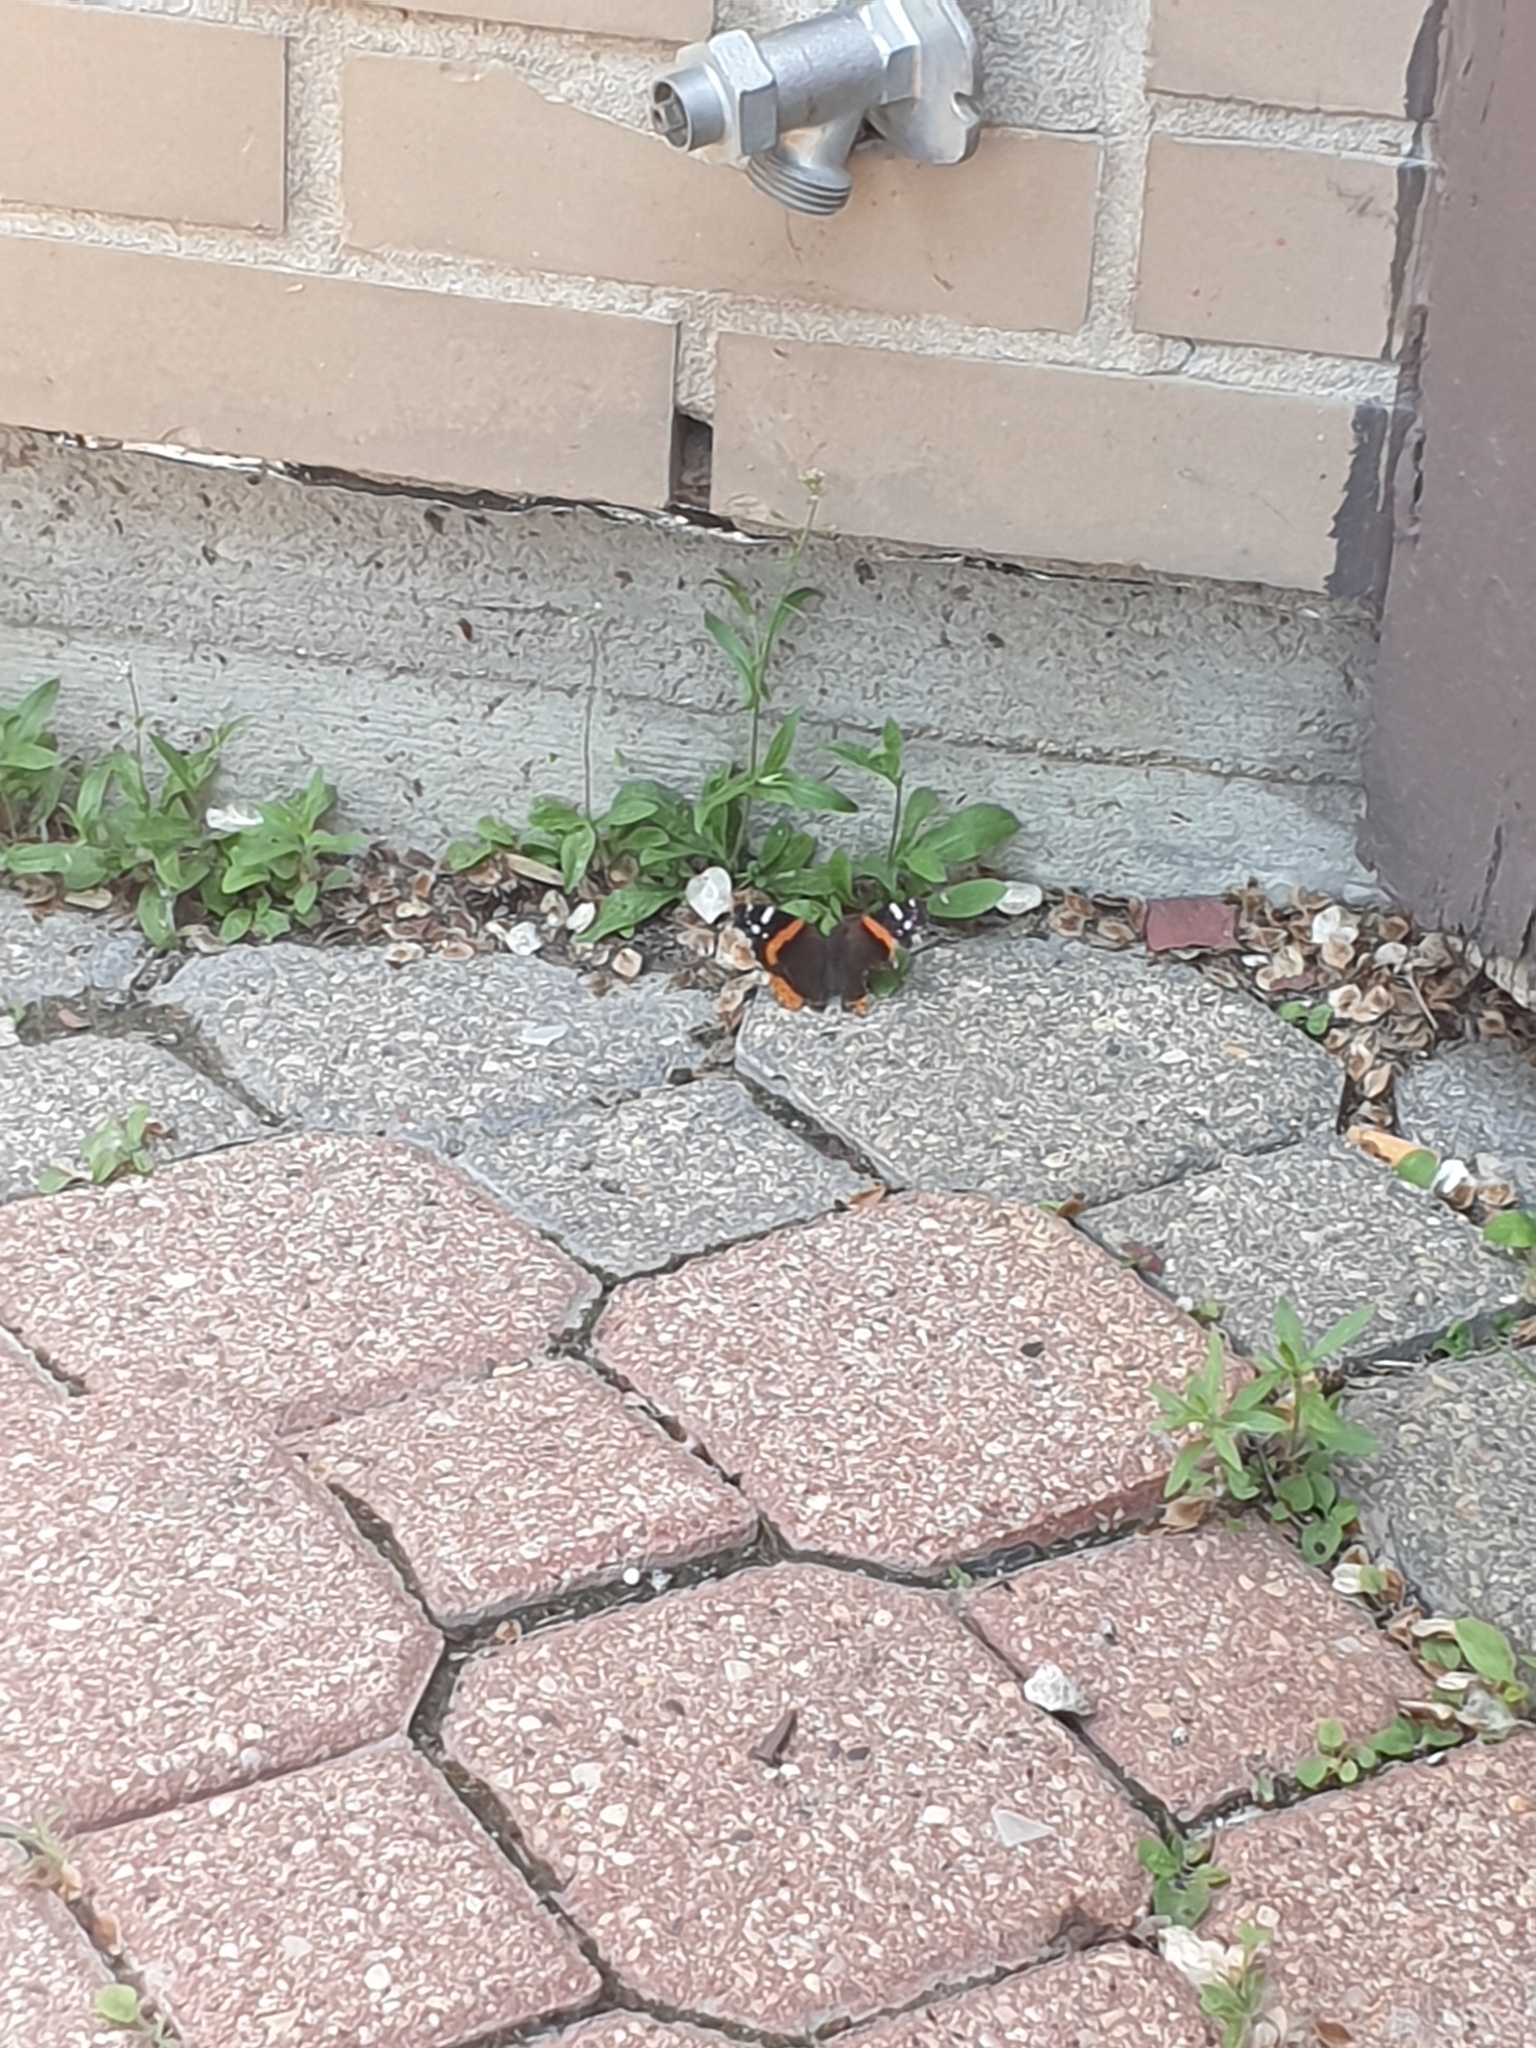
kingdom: Animalia
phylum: Arthropoda
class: Insecta
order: Lepidoptera
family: Nymphalidae
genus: Vanessa
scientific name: Vanessa atalanta
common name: Red admiral
